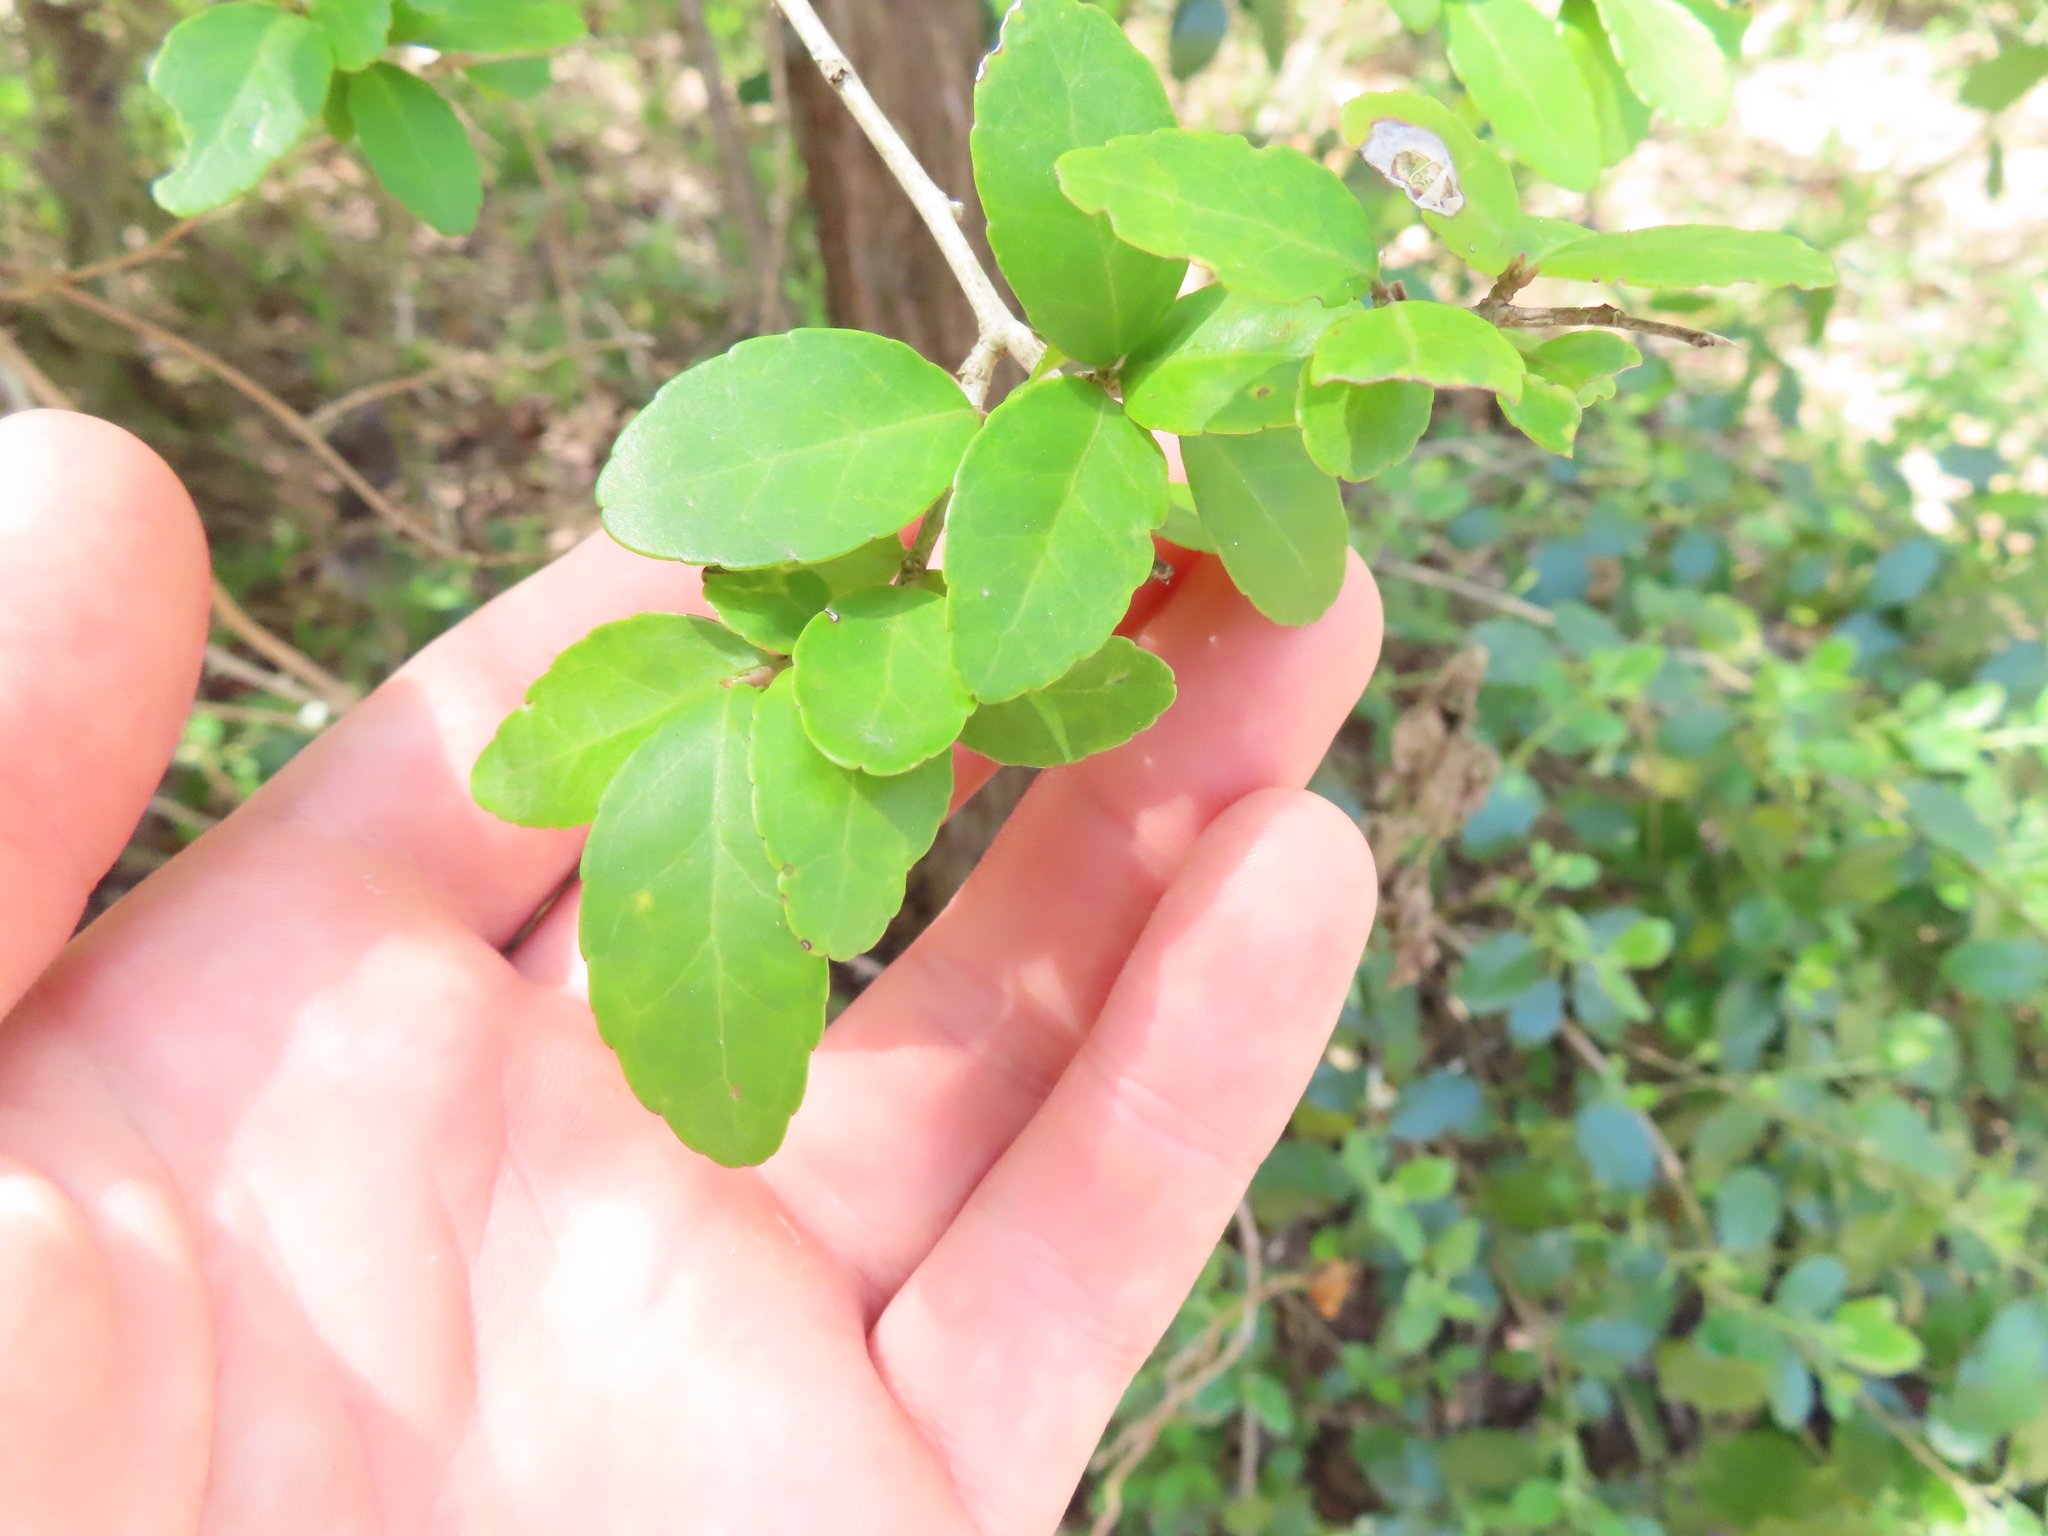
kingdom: Plantae
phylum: Tracheophyta
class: Magnoliopsida
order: Aquifoliales
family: Aquifoliaceae
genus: Ilex
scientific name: Ilex vomitoria
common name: Yaupon holly
